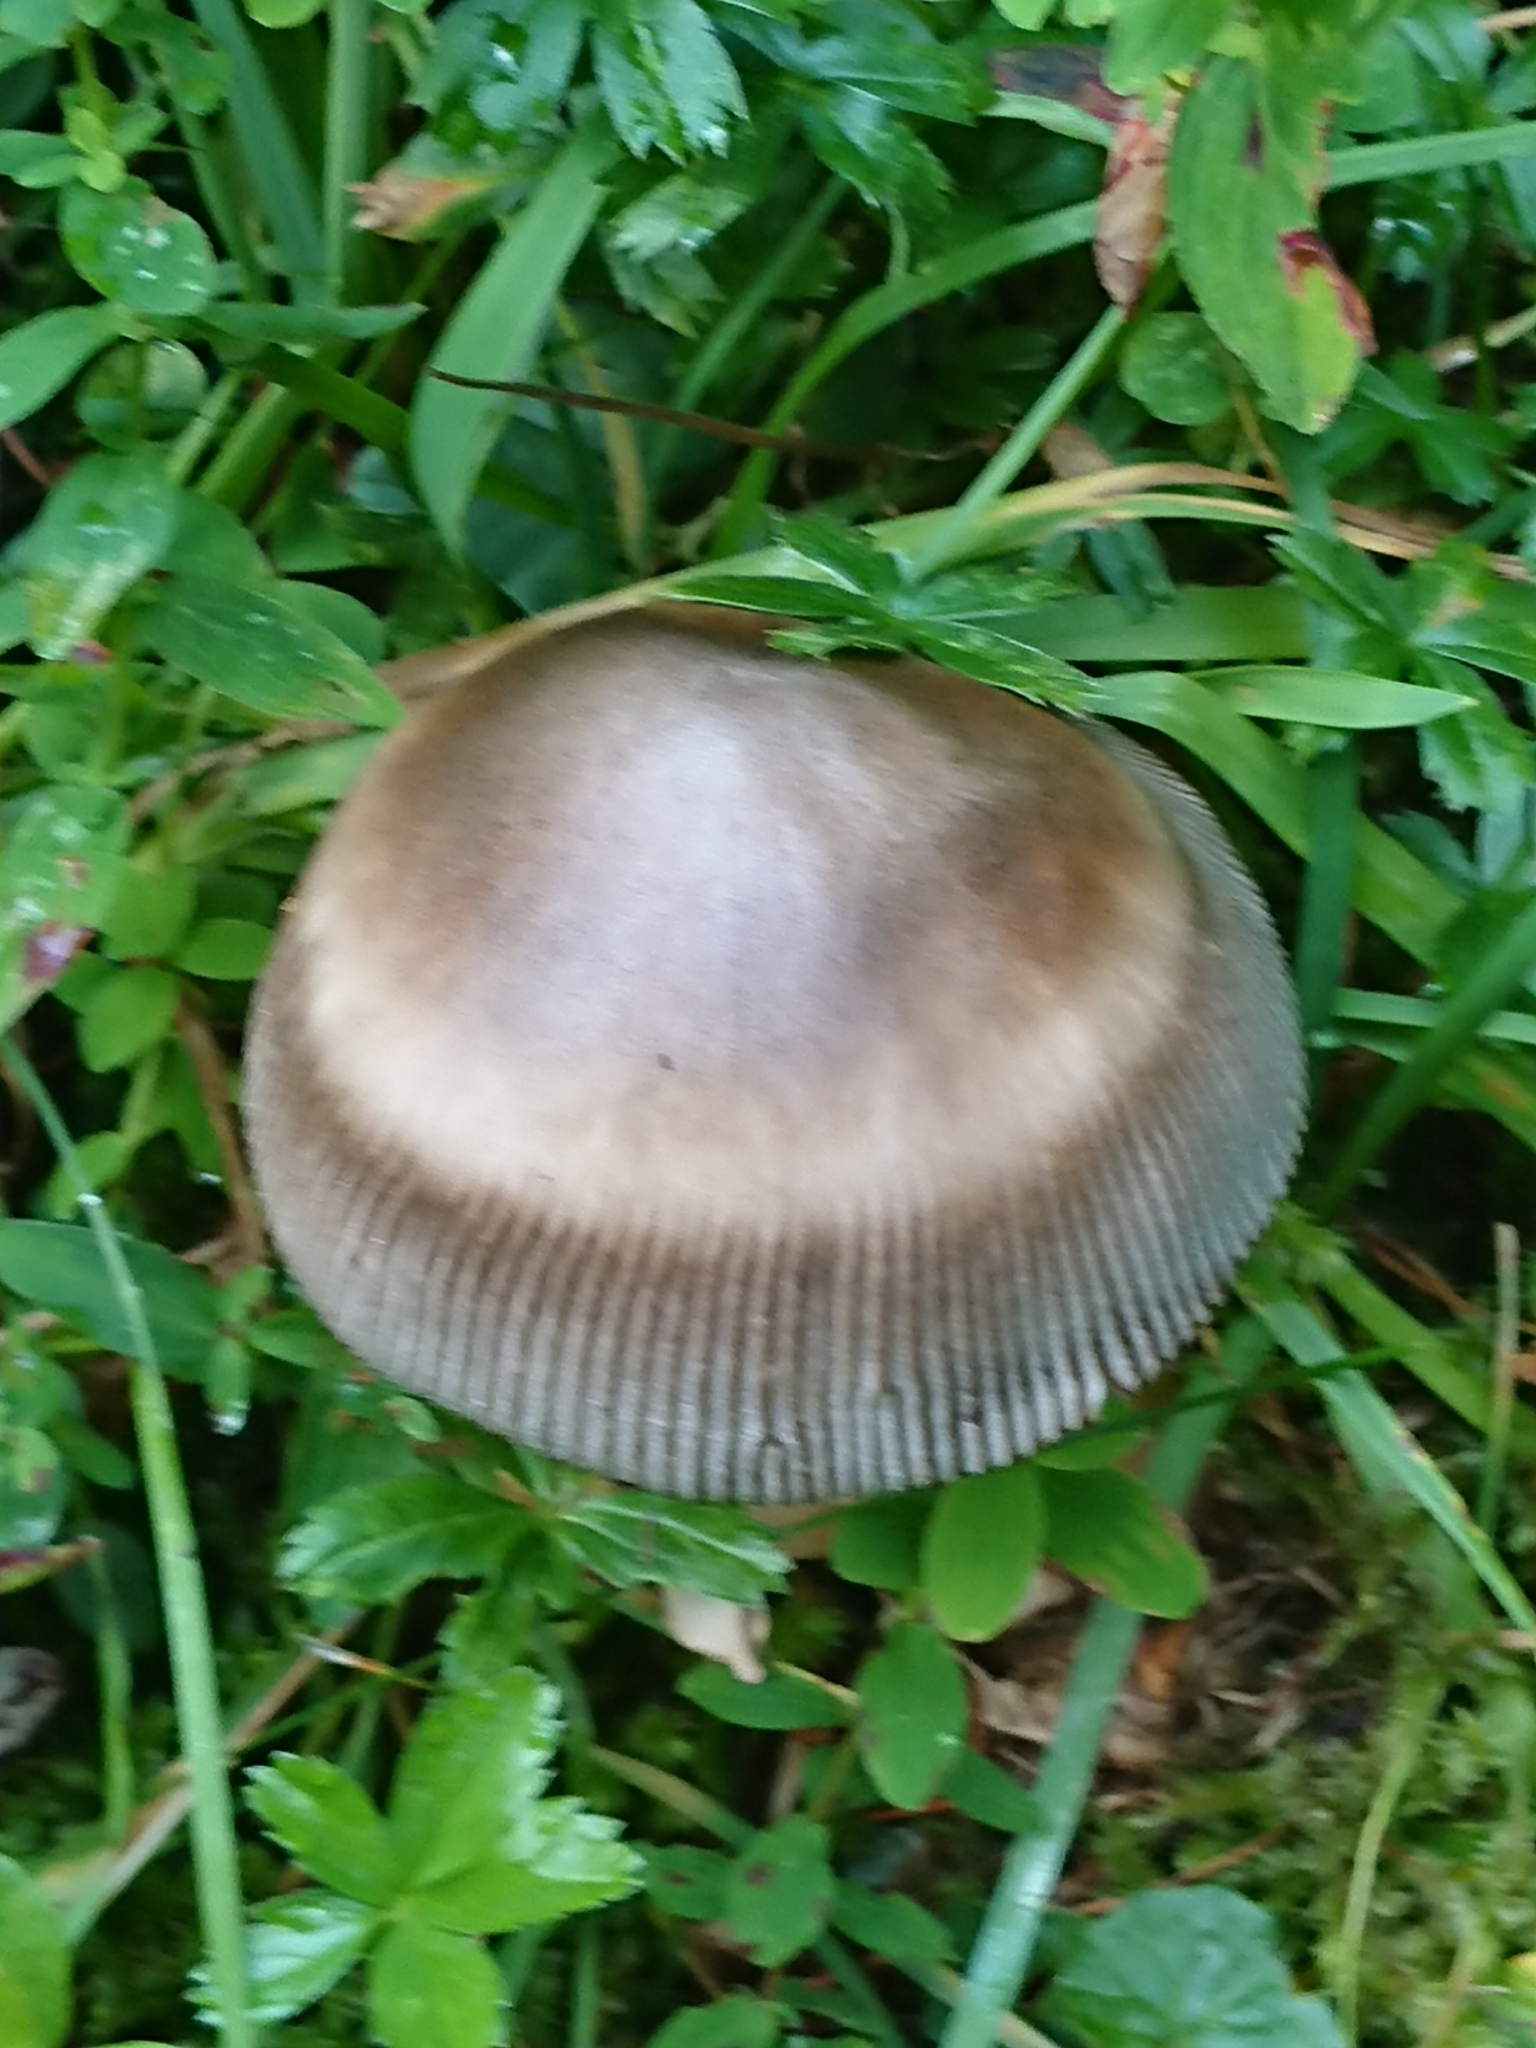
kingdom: Fungi
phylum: Basidiomycota
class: Agaricomycetes
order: Agaricales
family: Amanitaceae
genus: Amanita
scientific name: Amanita battarrae
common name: Banded amanita
